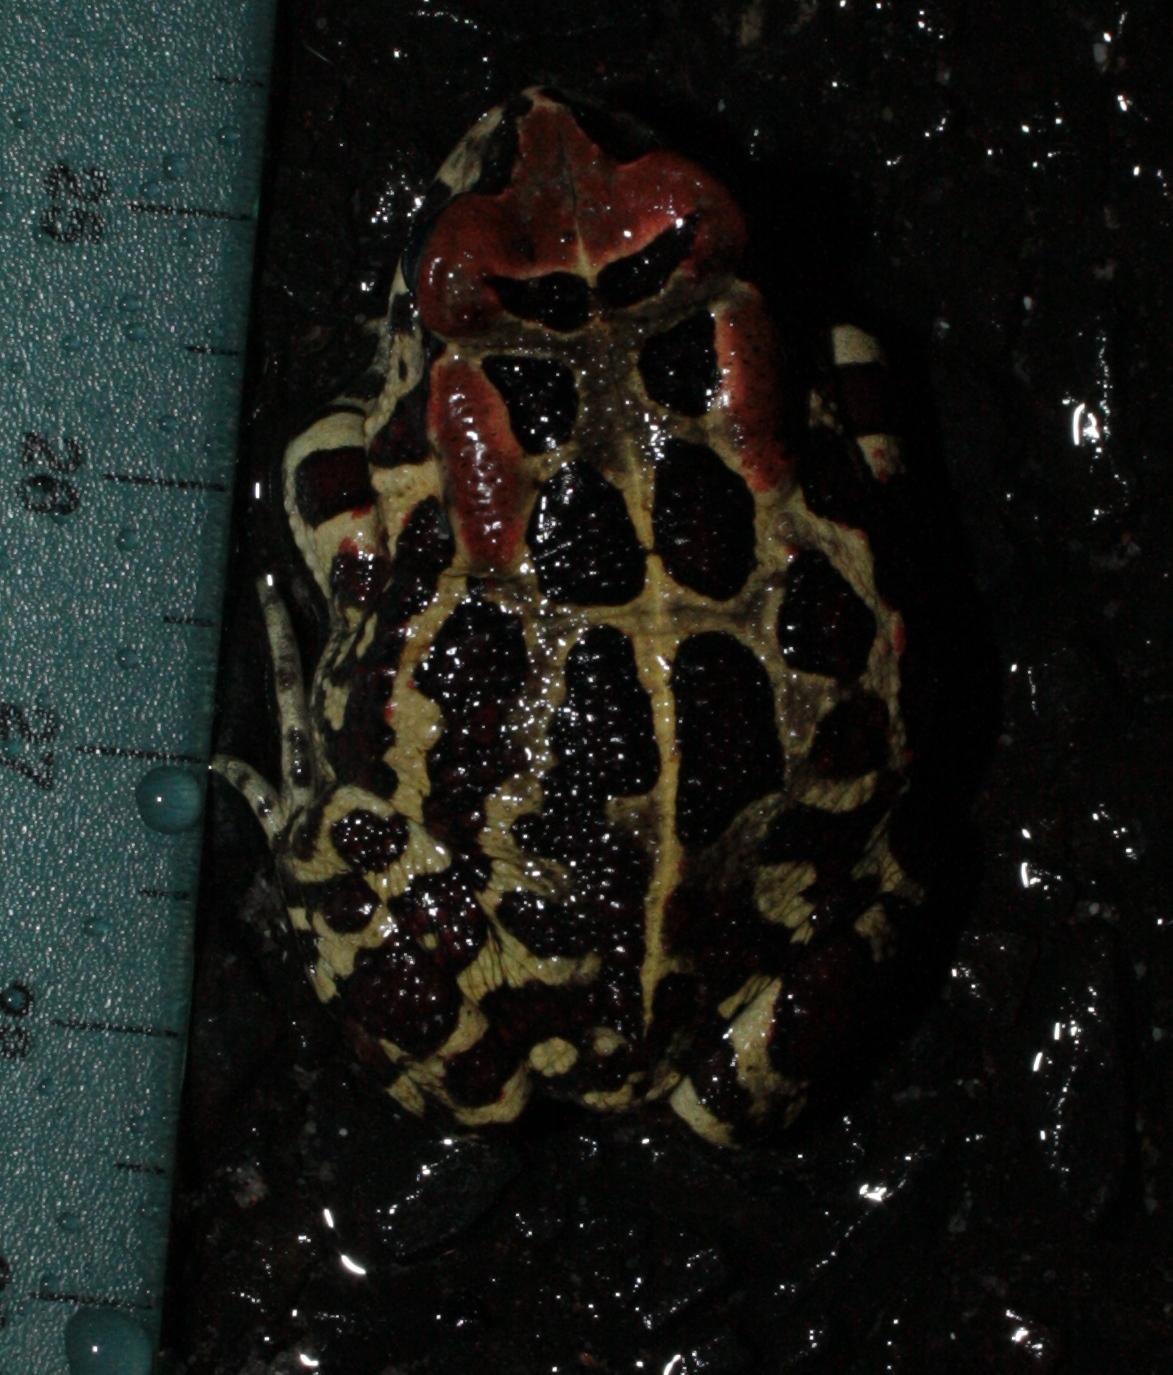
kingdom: Animalia
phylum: Chordata
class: Amphibia
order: Anura
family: Bufonidae
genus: Sclerophrys
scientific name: Sclerophrys pantherina
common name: Panther toad
